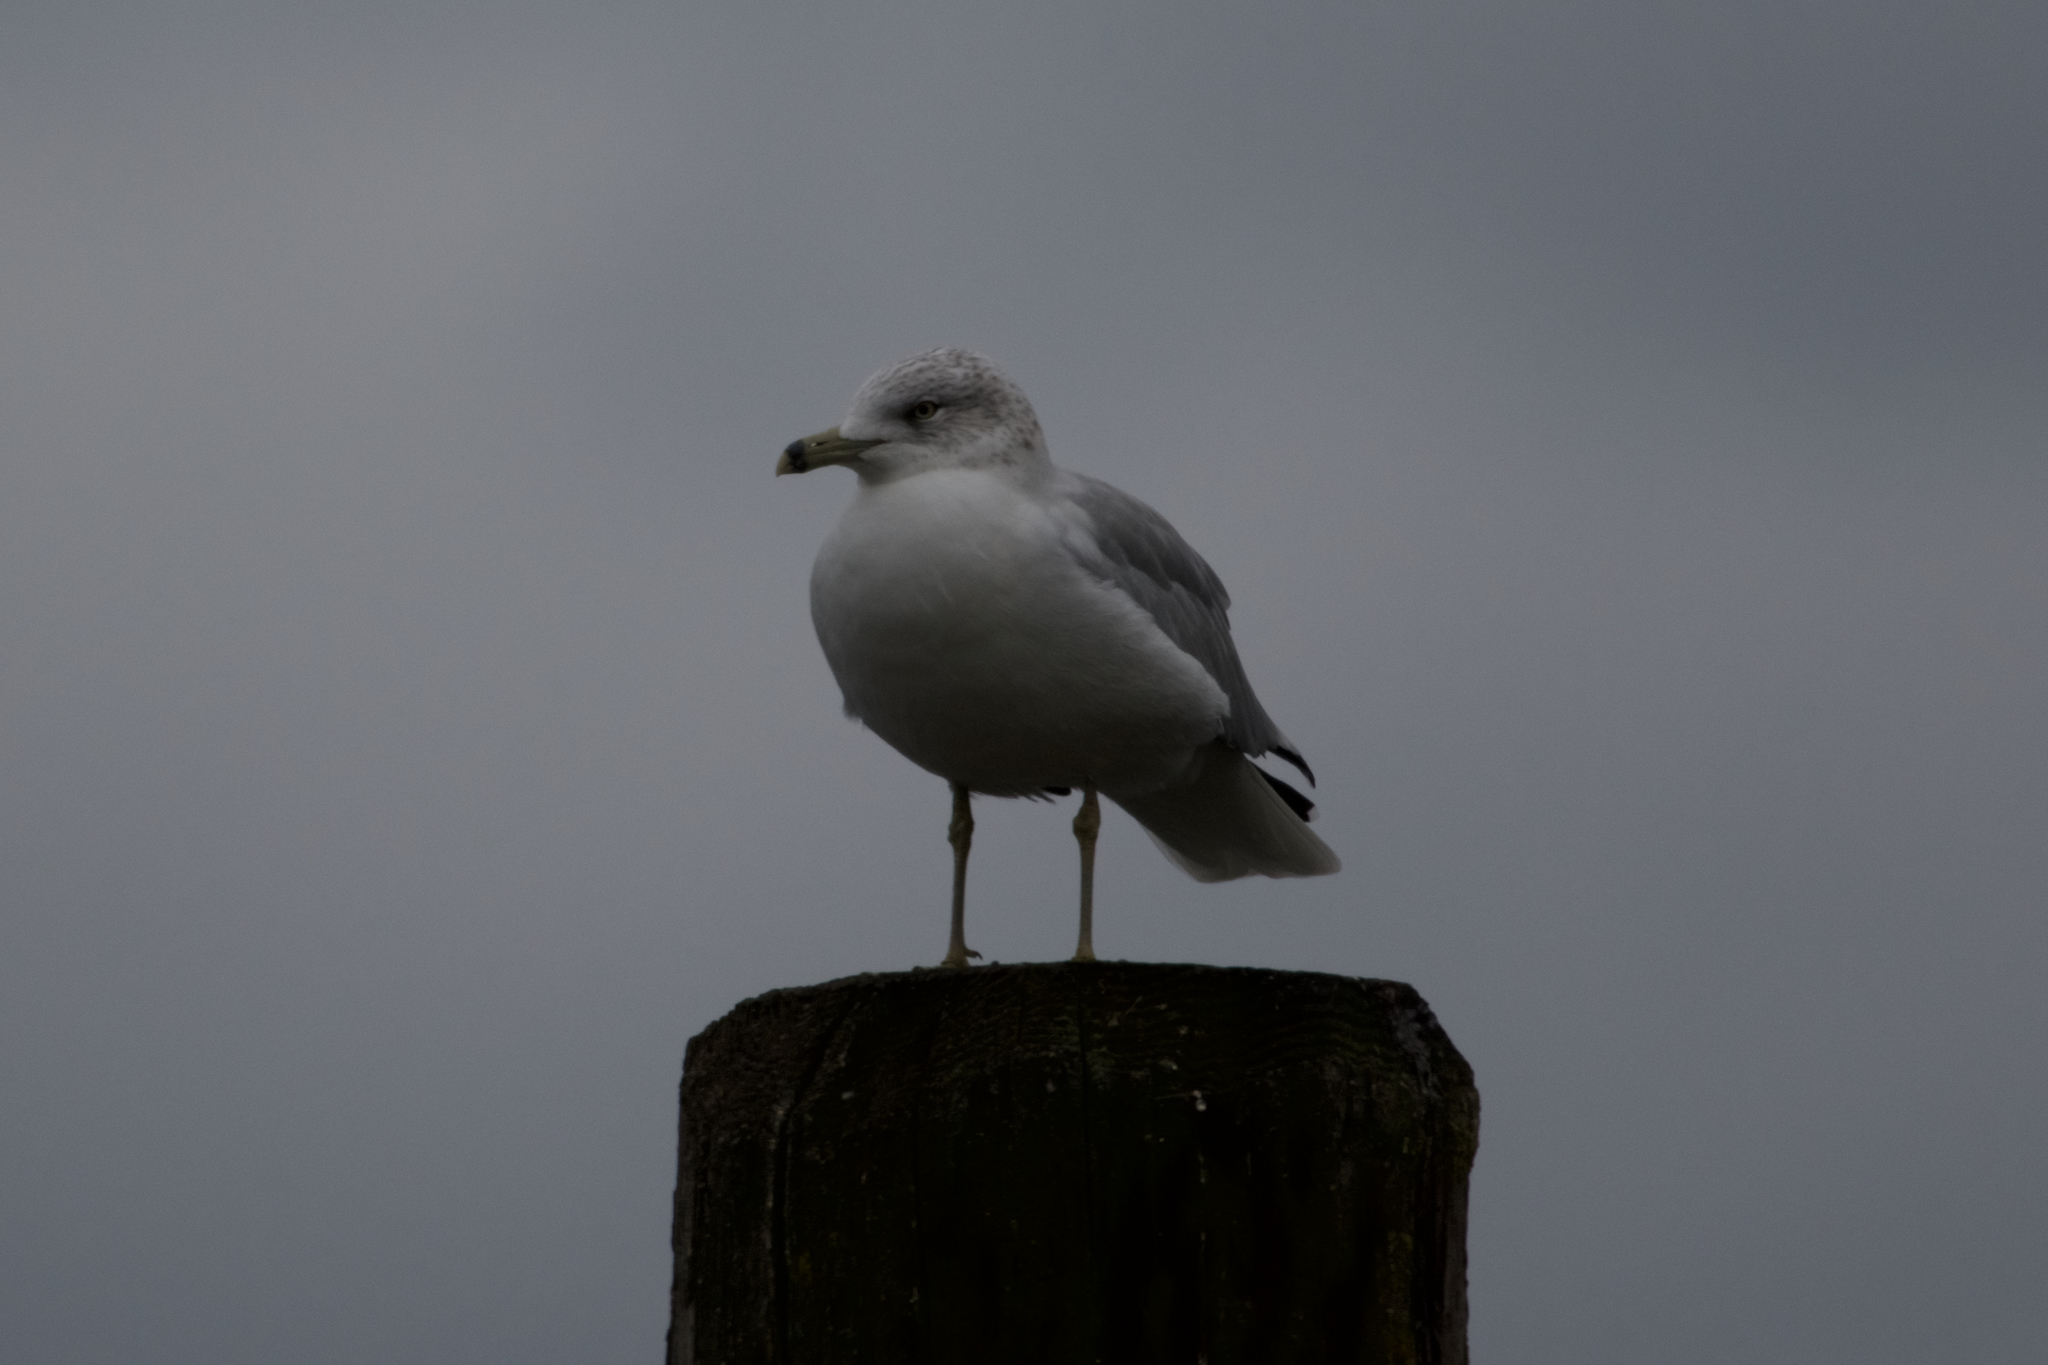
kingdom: Animalia
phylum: Chordata
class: Aves
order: Charadriiformes
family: Laridae
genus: Larus
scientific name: Larus delawarensis
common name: Ring-billed gull
